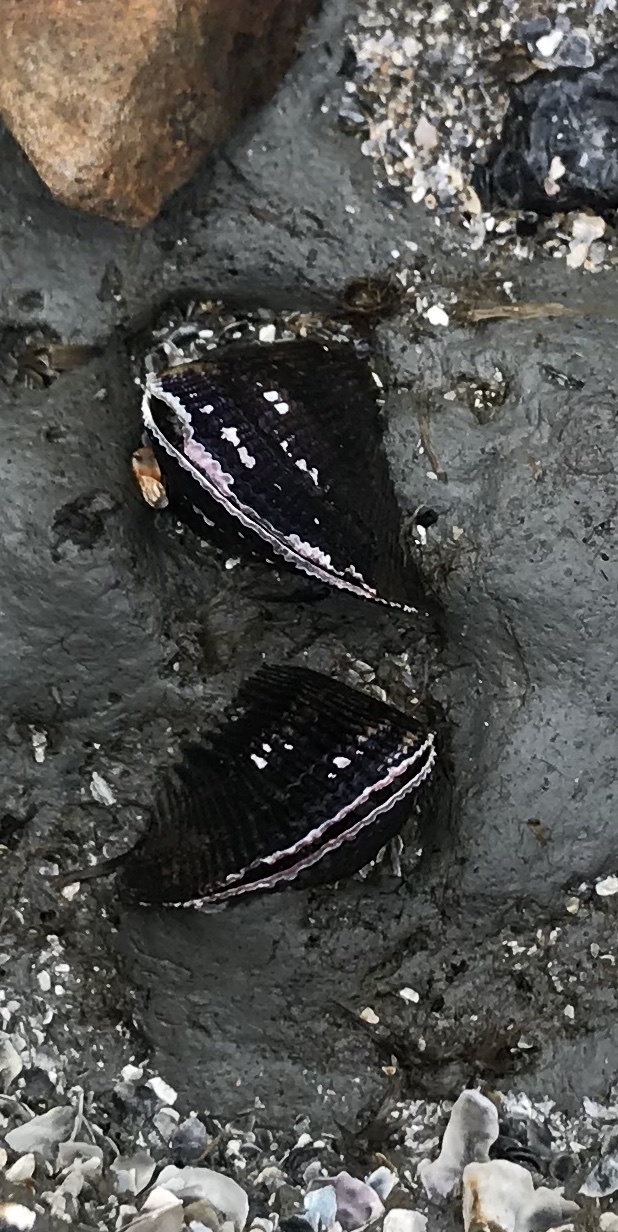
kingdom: Animalia
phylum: Mollusca
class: Bivalvia
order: Mytilida
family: Mytilidae
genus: Geukensia
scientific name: Geukensia demissa
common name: Ribbed mussel
